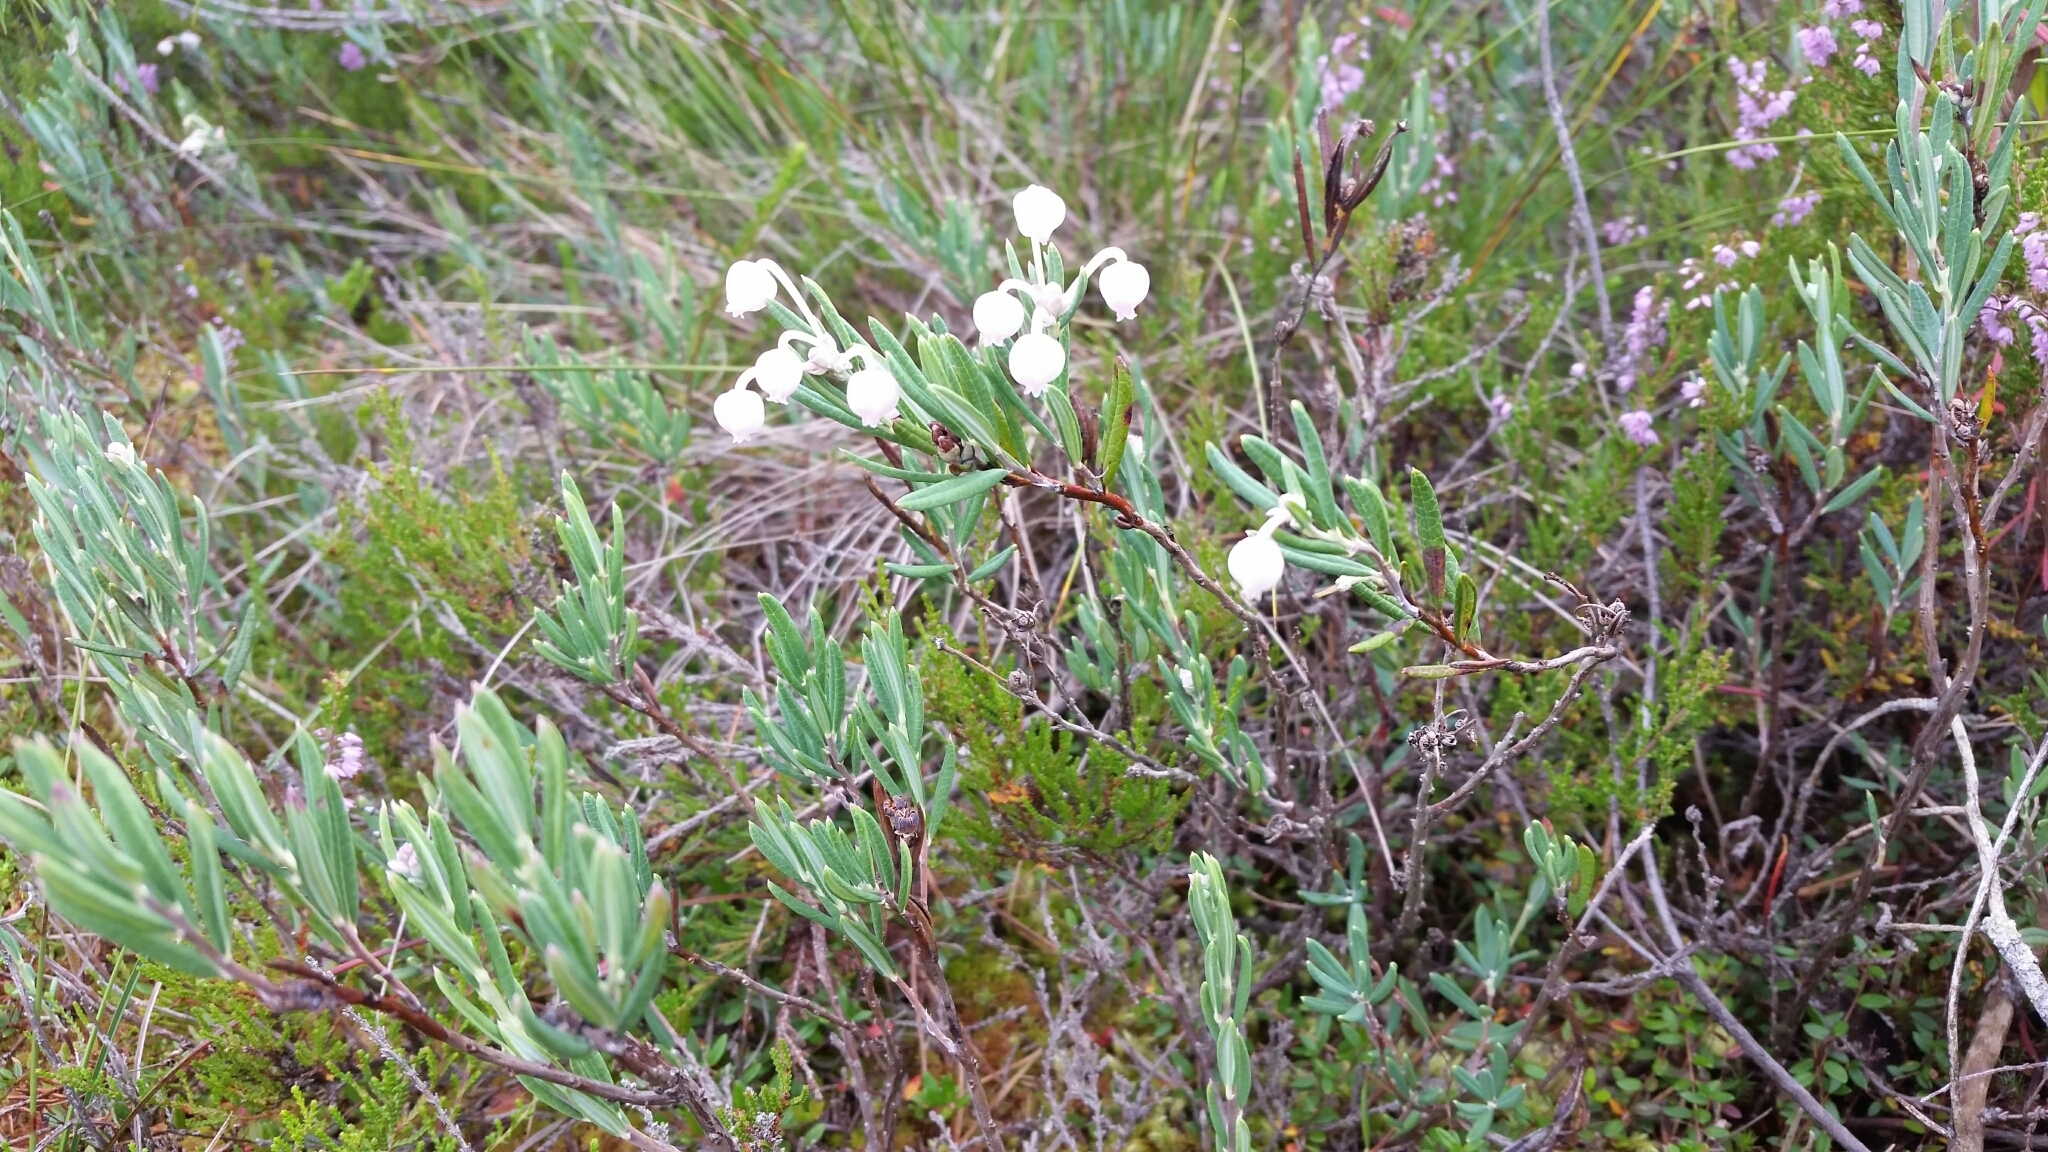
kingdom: Plantae
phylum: Tracheophyta
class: Magnoliopsida
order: Ericales
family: Ericaceae
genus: Andromeda
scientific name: Andromeda polifolia
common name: Bog-rosemary
